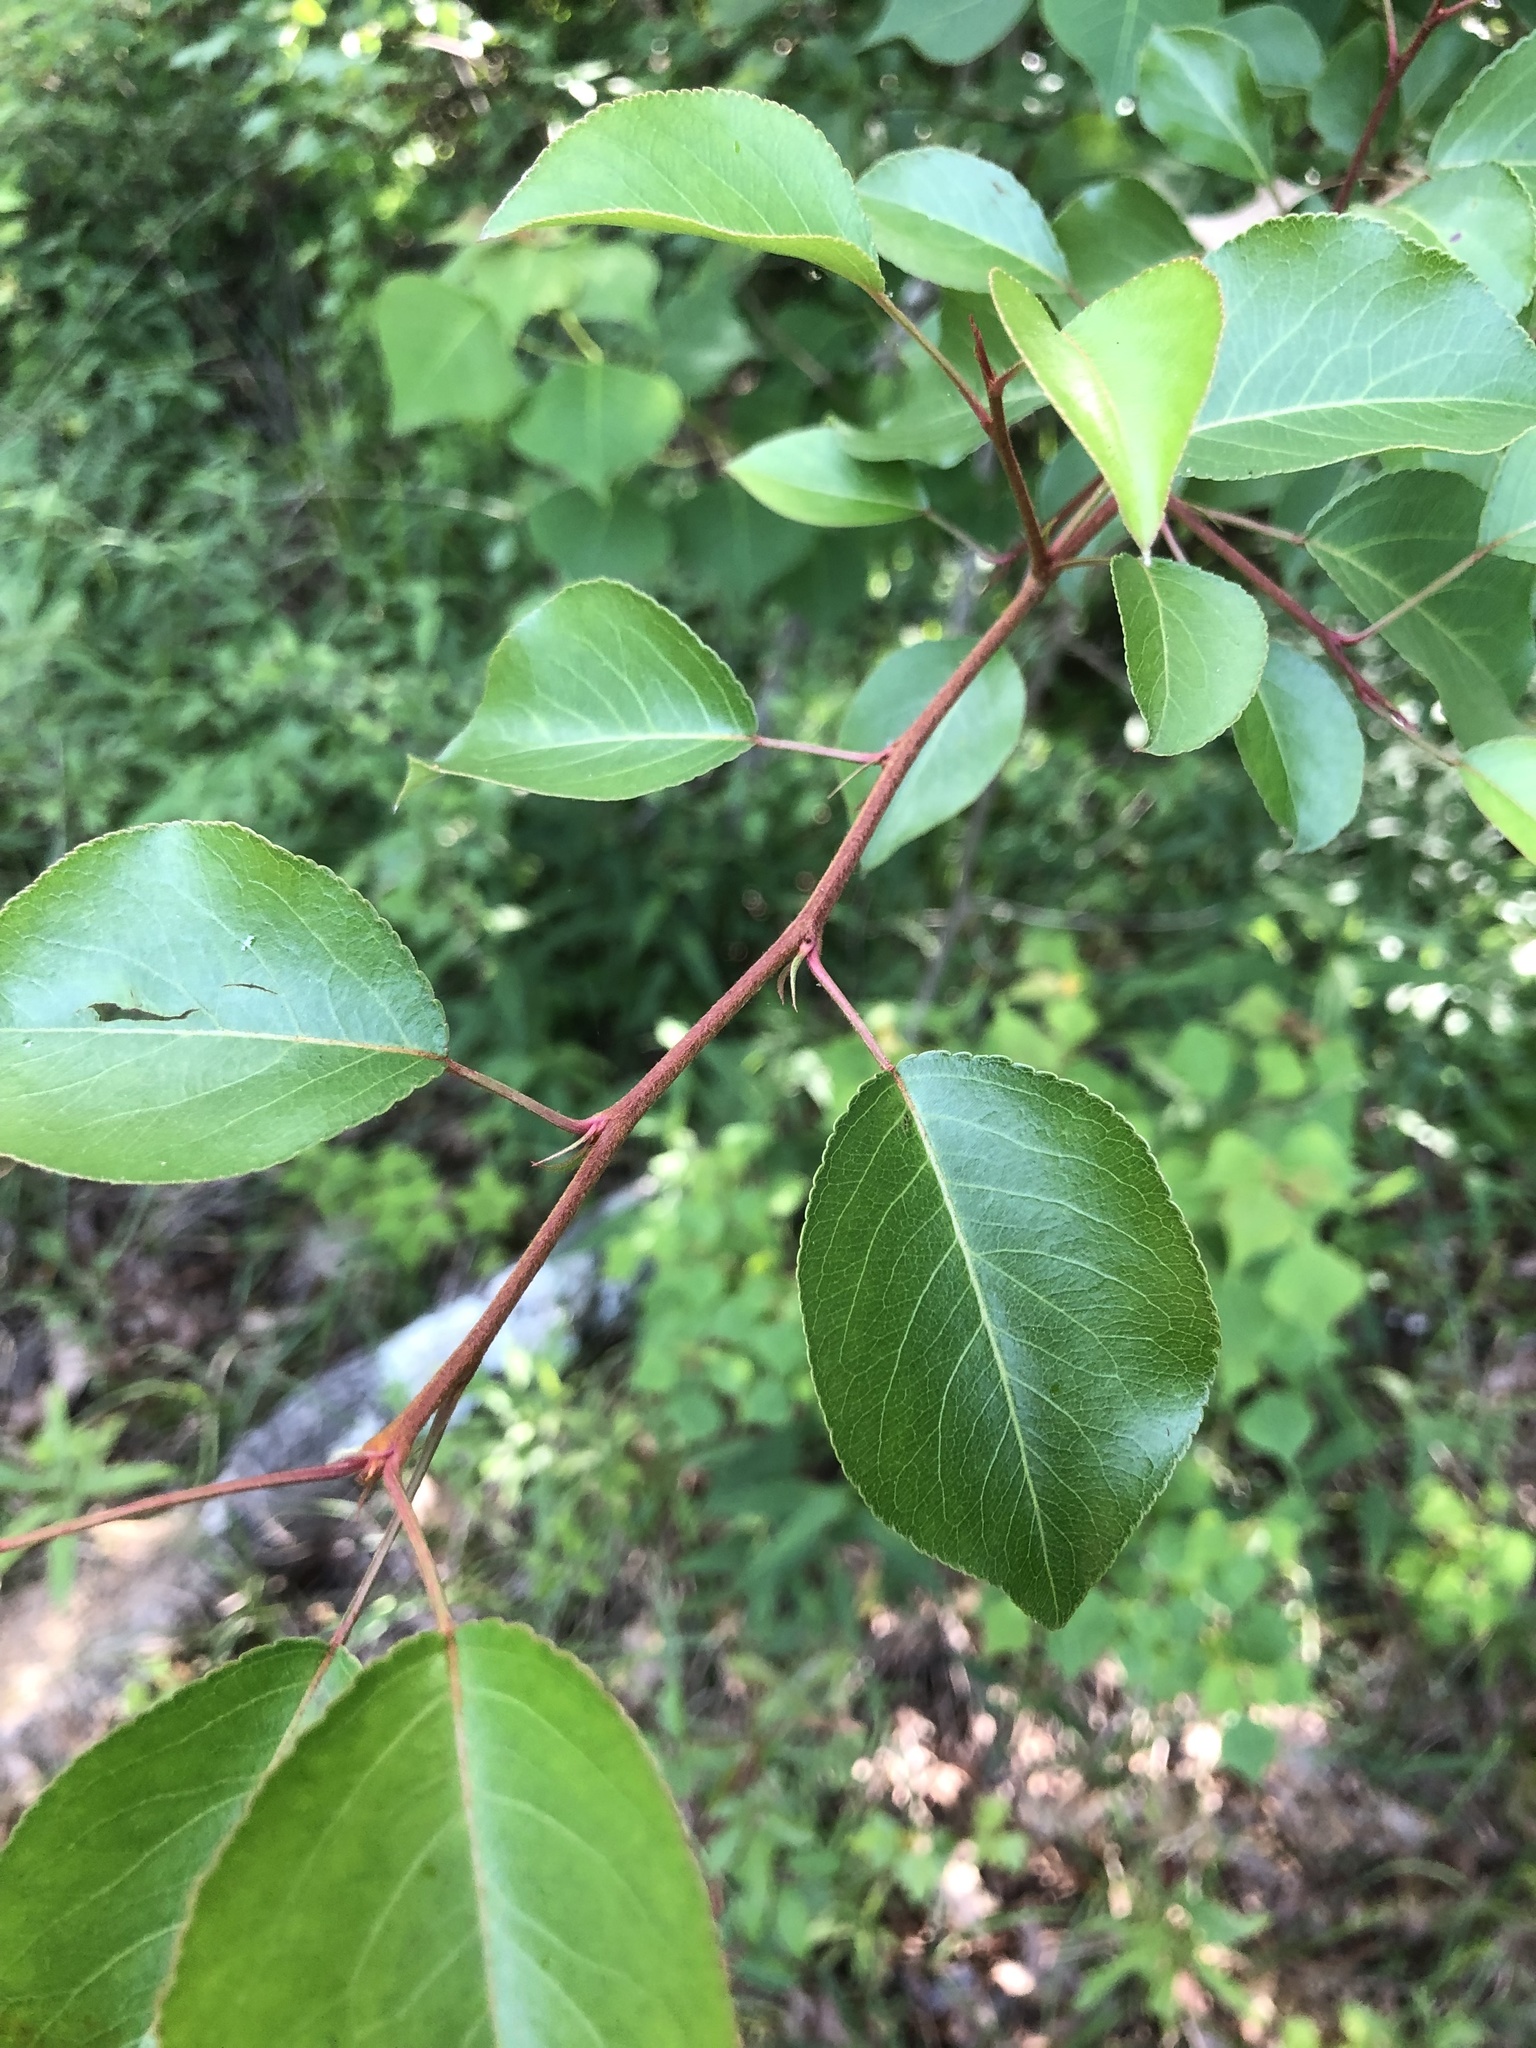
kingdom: Plantae
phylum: Tracheophyta
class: Magnoliopsida
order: Rosales
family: Rosaceae
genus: Pyrus
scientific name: Pyrus calleryana
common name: Callery pear
